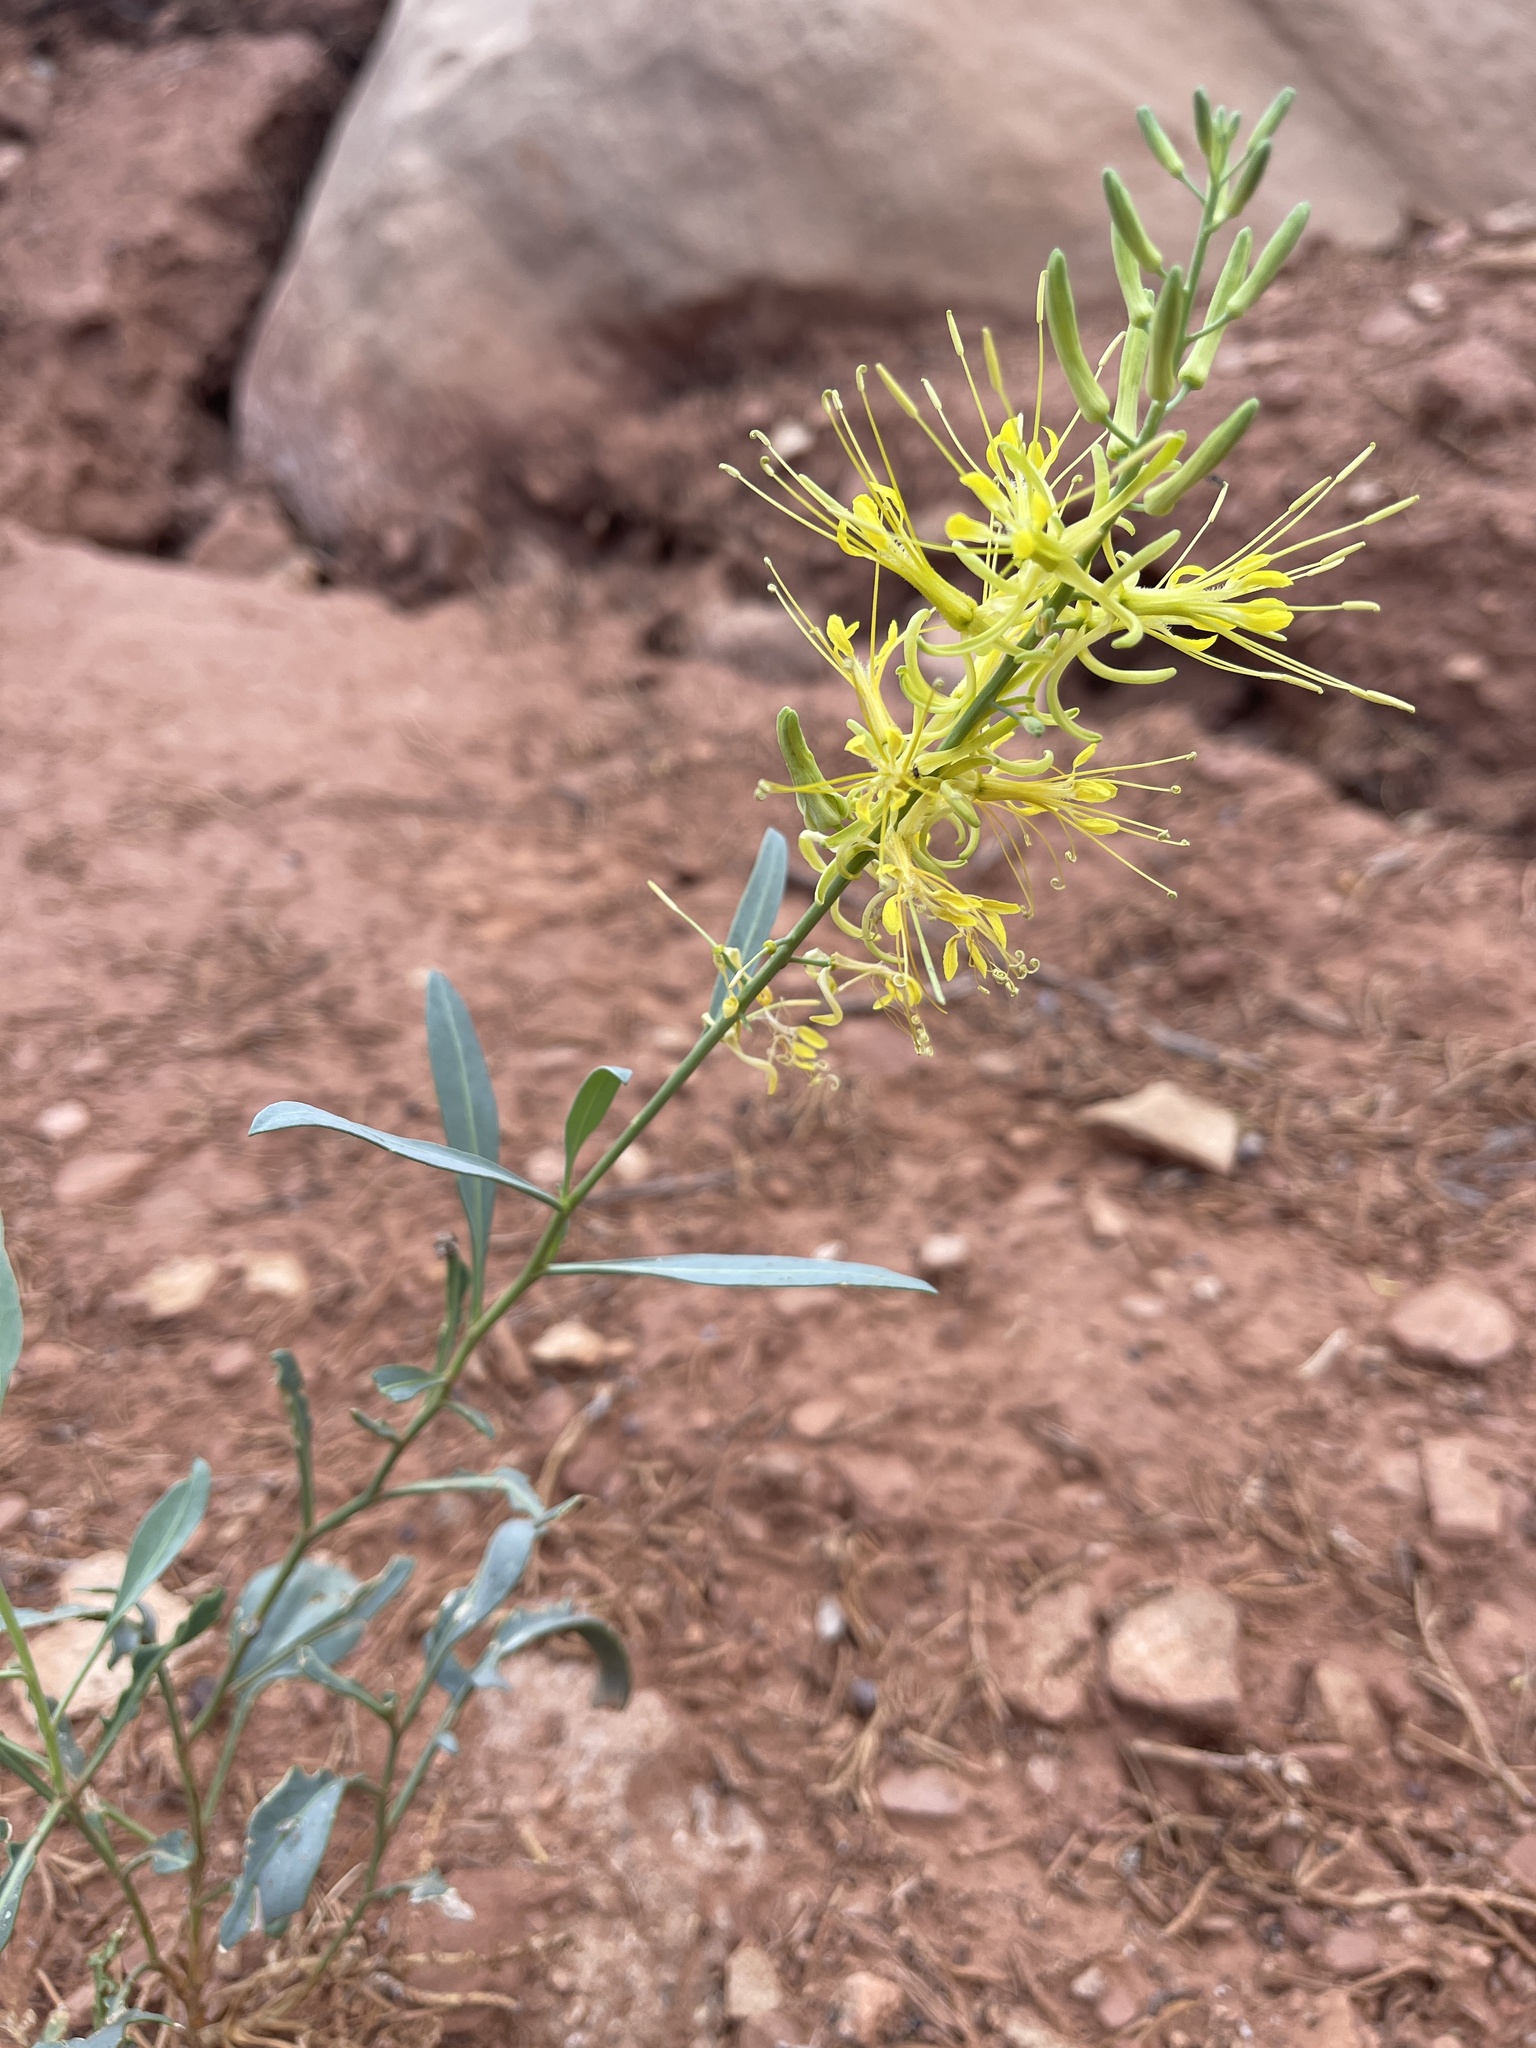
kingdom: Plantae
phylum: Tracheophyta
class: Magnoliopsida
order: Brassicales
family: Brassicaceae
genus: Stanleya
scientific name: Stanleya pinnata
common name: Prince's-plume
